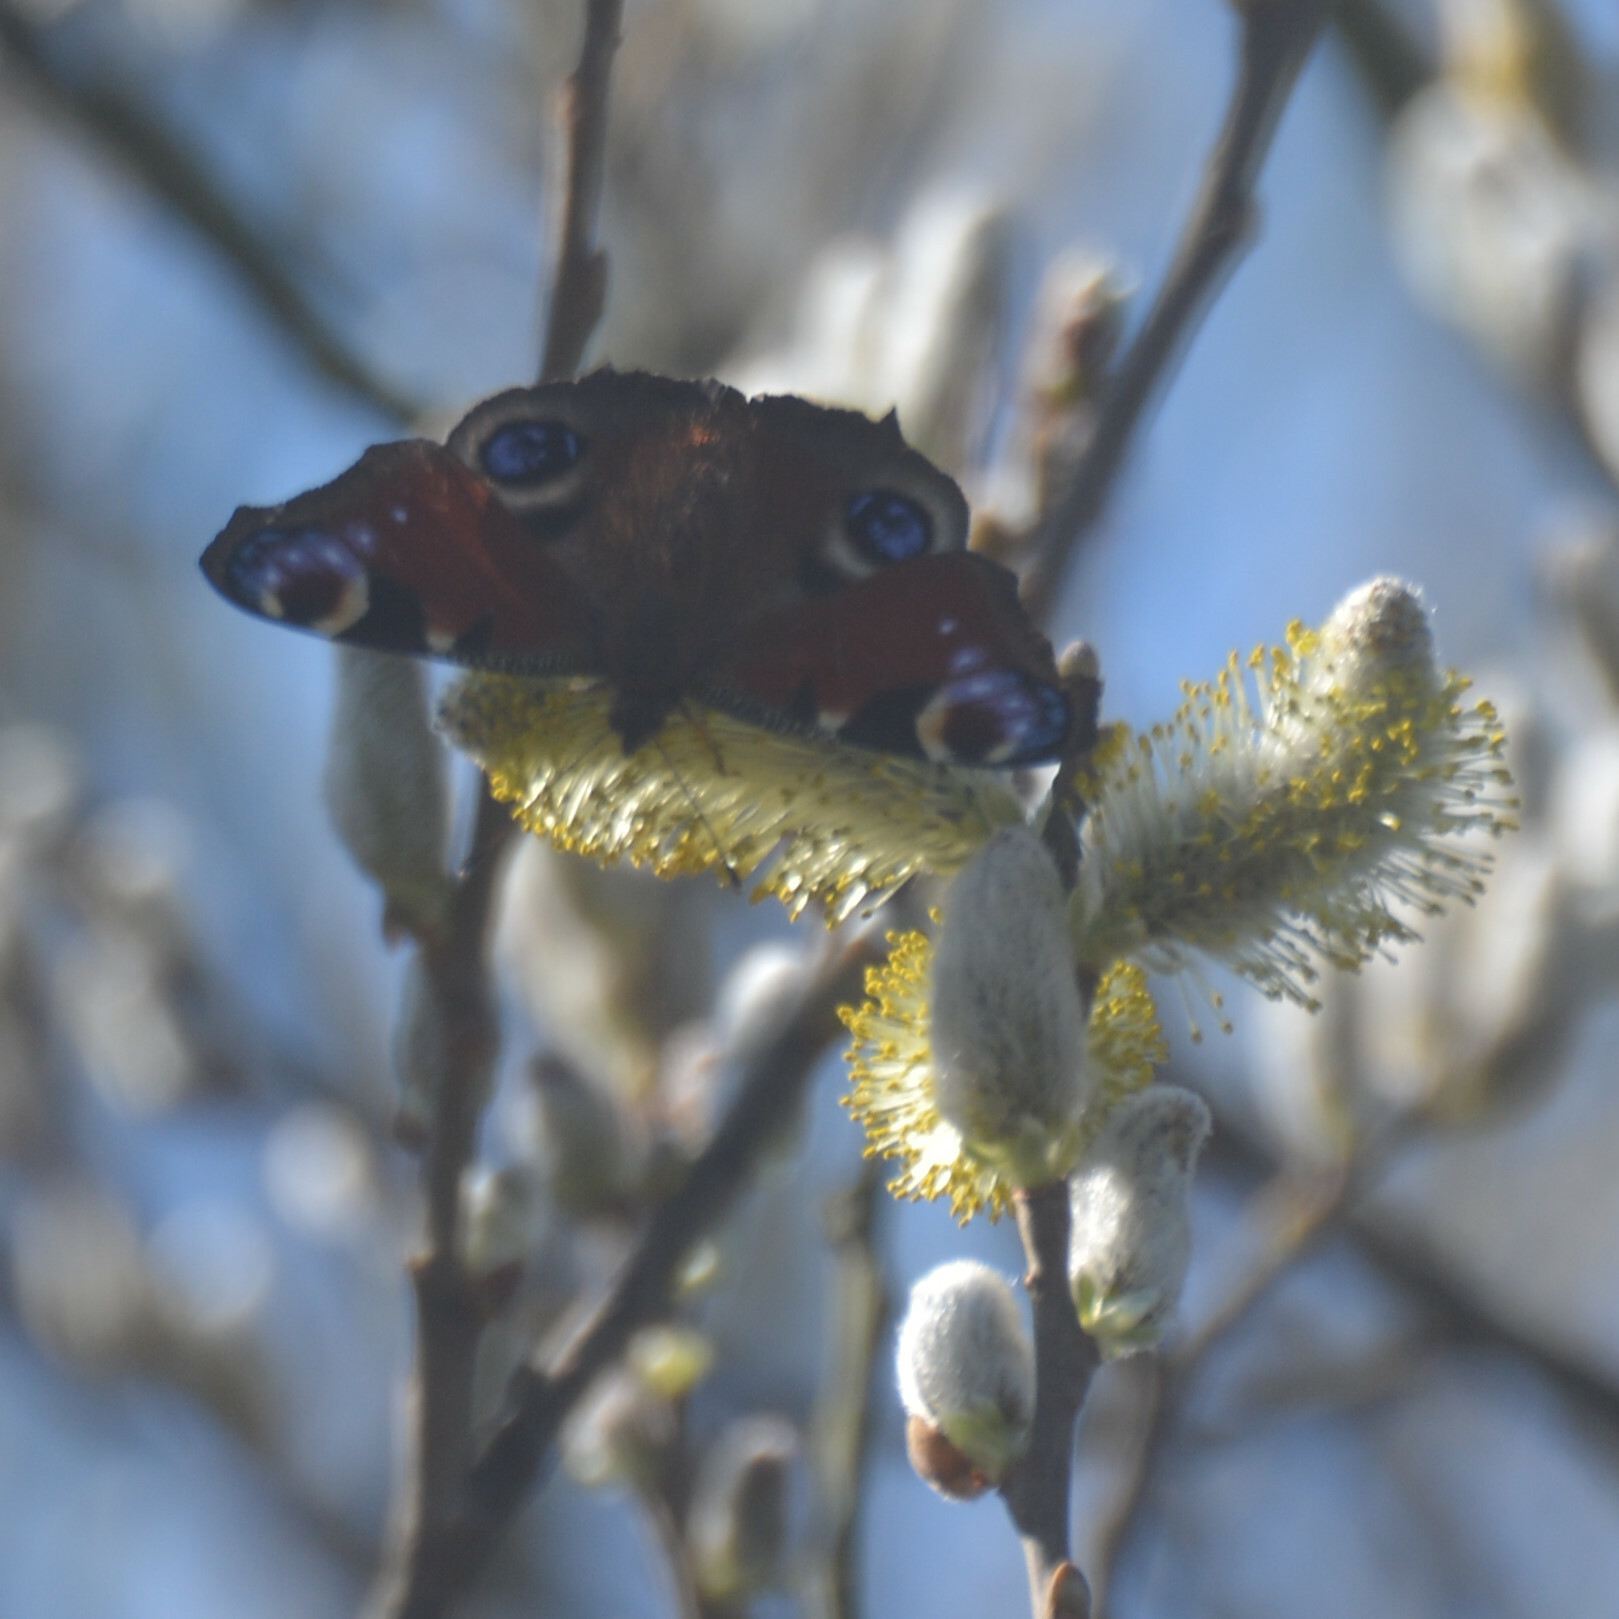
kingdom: Animalia
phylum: Arthropoda
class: Insecta
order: Lepidoptera
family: Nymphalidae
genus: Aglais
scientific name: Aglais io
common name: Peacock
